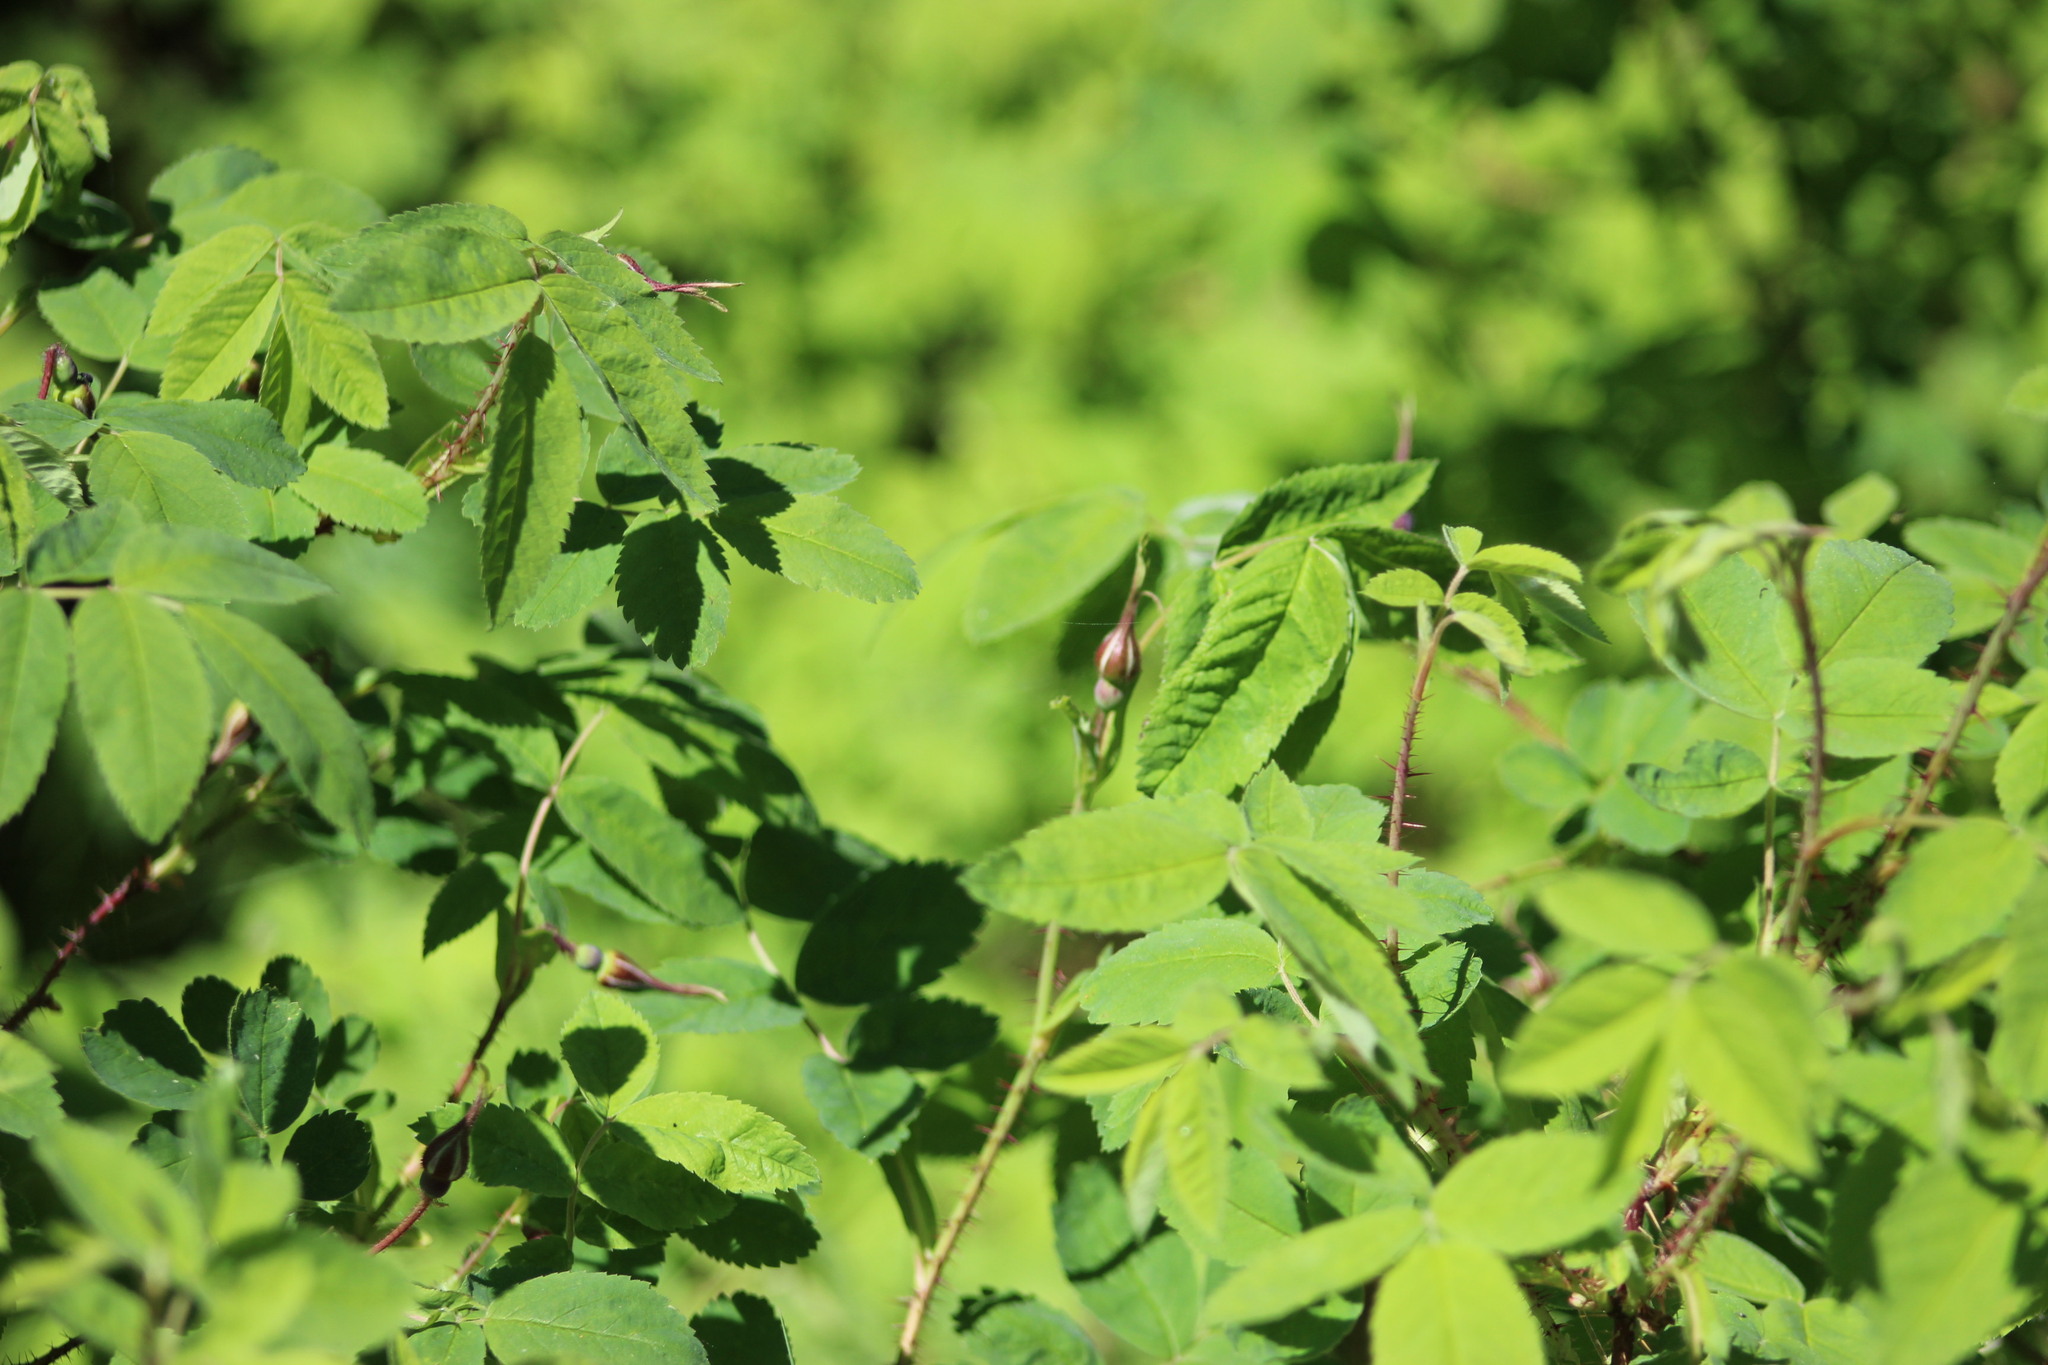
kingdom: Plantae
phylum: Tracheophyta
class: Magnoliopsida
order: Rosales
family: Rosaceae
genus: Rosa
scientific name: Rosa acicularis
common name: Prickly rose
